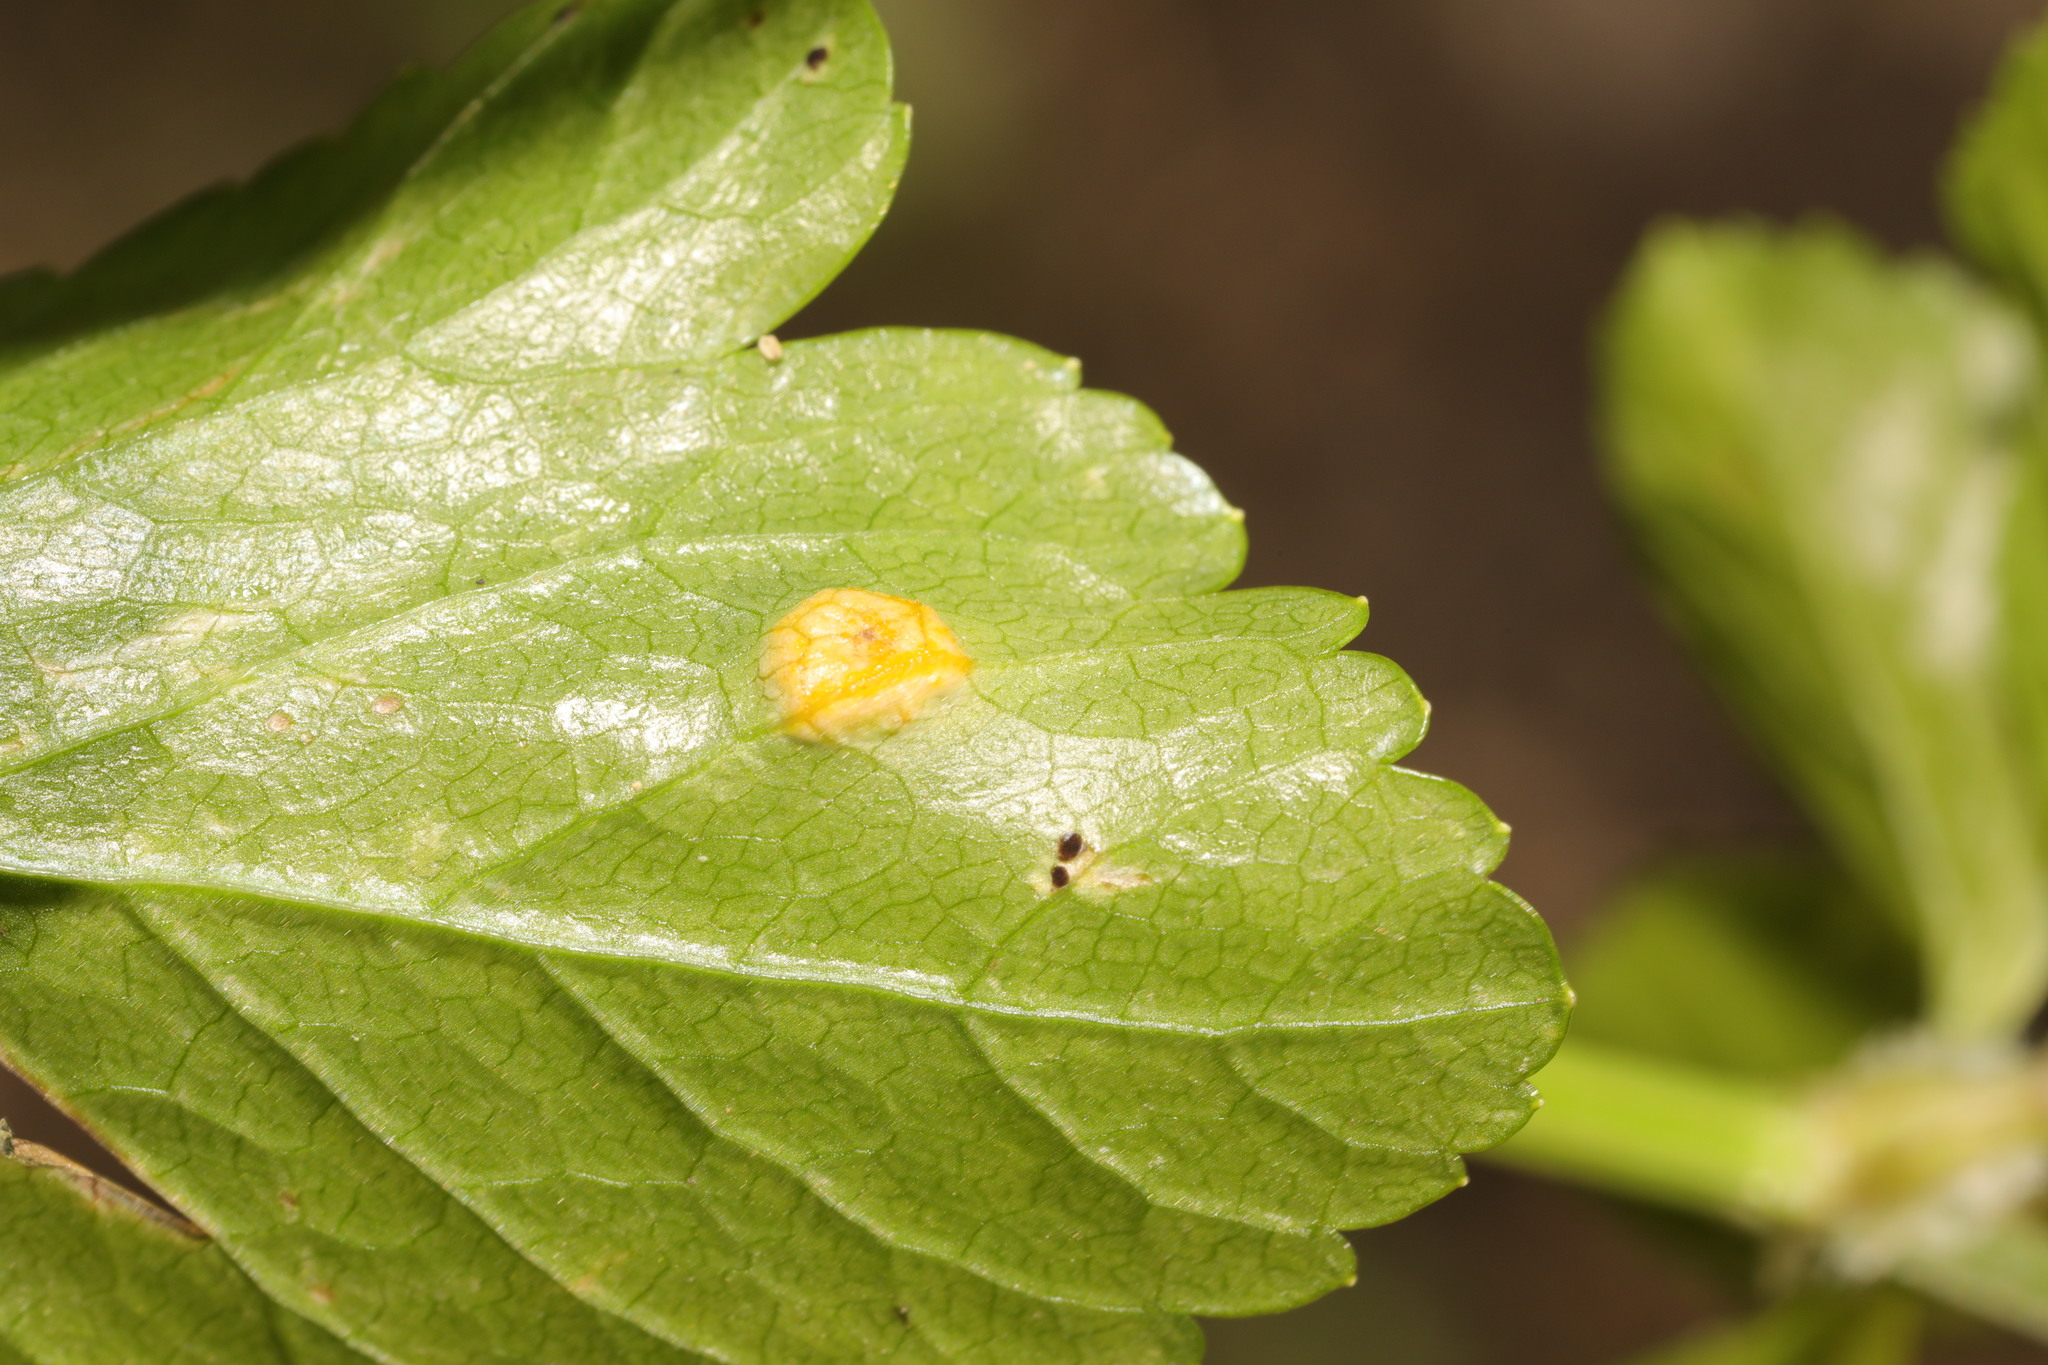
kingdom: Fungi
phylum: Basidiomycota
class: Pucciniomycetes
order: Pucciniales
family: Pucciniaceae
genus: Puccinia
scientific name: Puccinia smyrnii
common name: Alexanders rust
